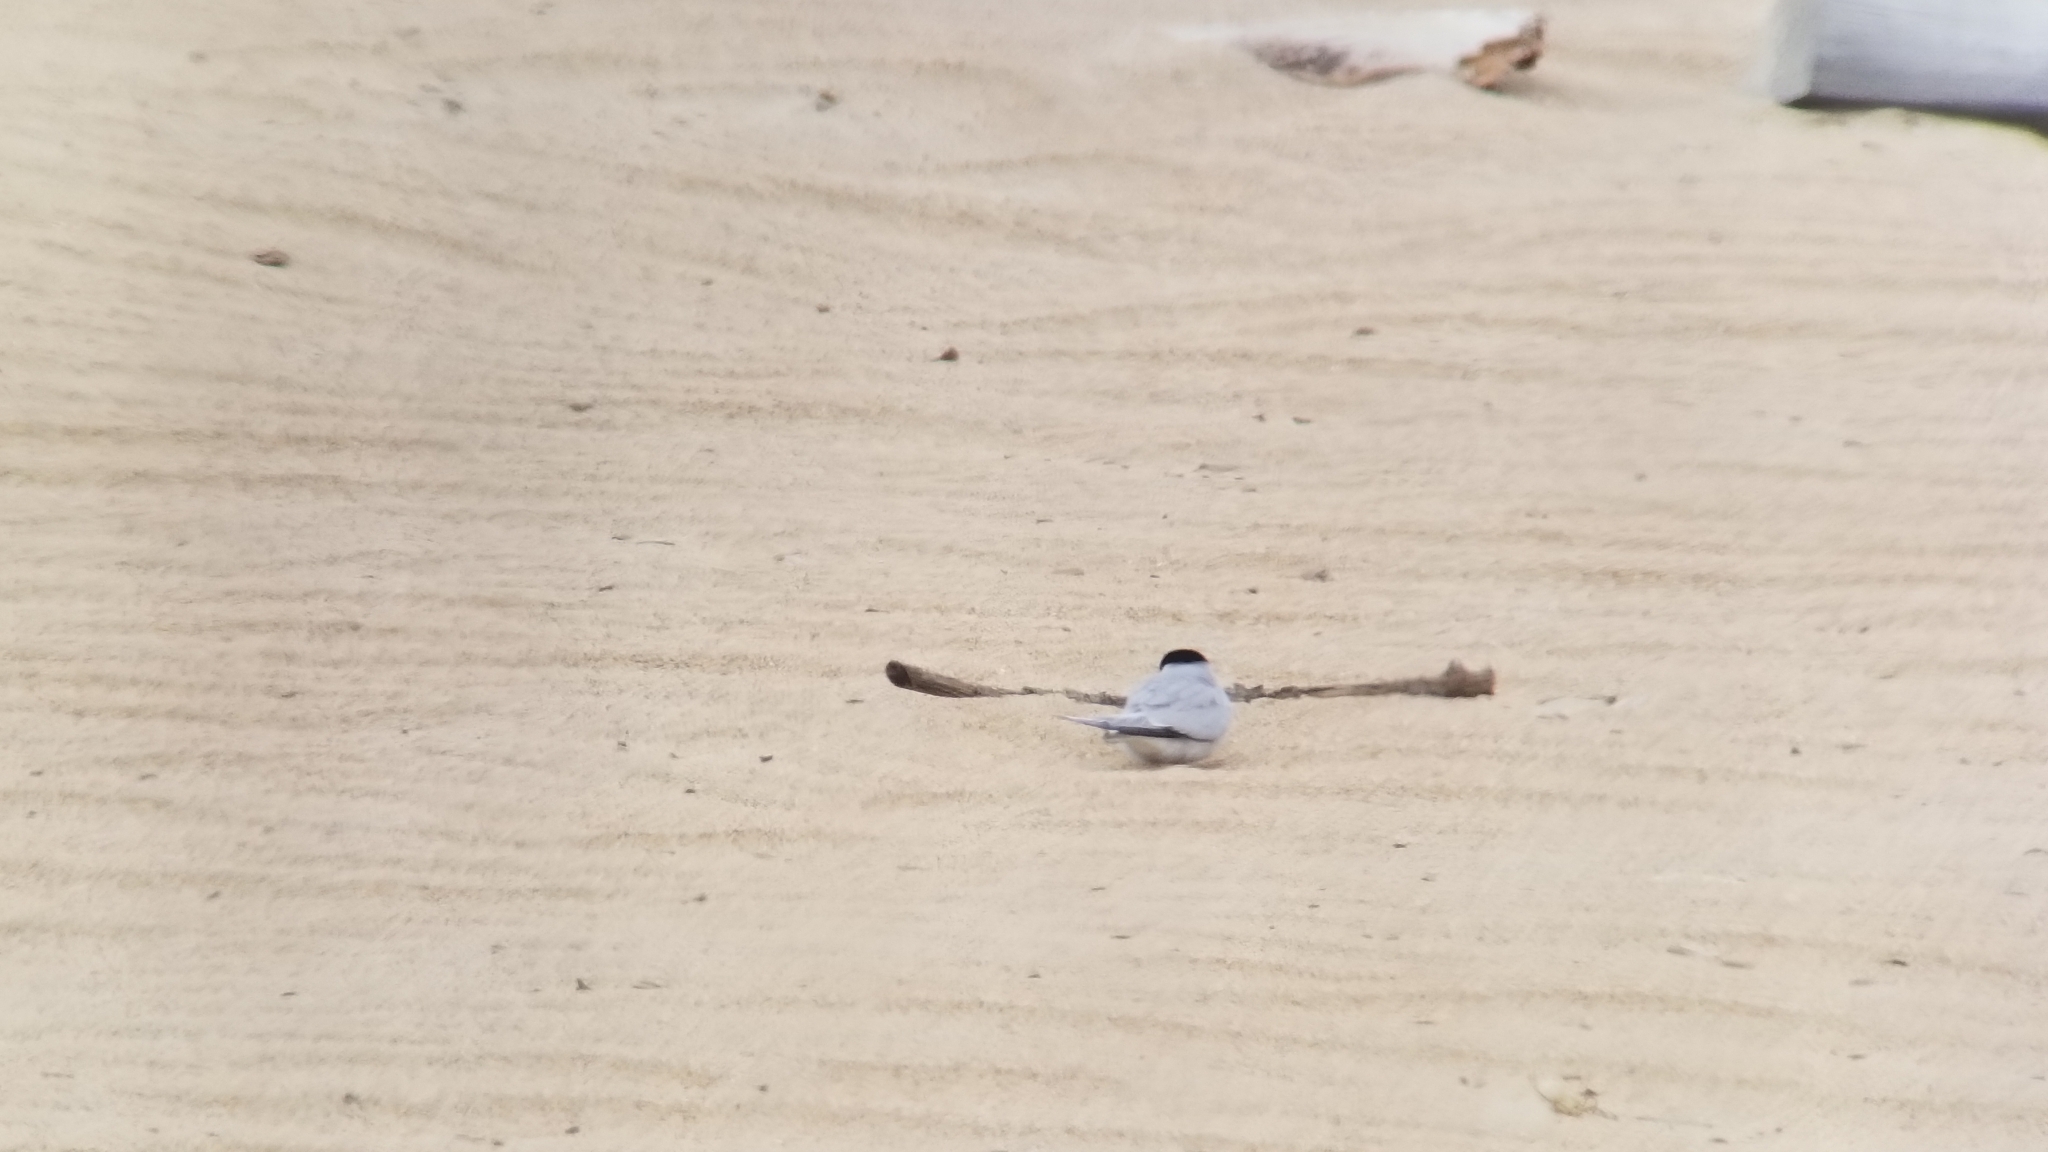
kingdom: Animalia
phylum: Chordata
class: Aves
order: Charadriiformes
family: Laridae
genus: Sternula
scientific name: Sternula antillarum
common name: Least tern
